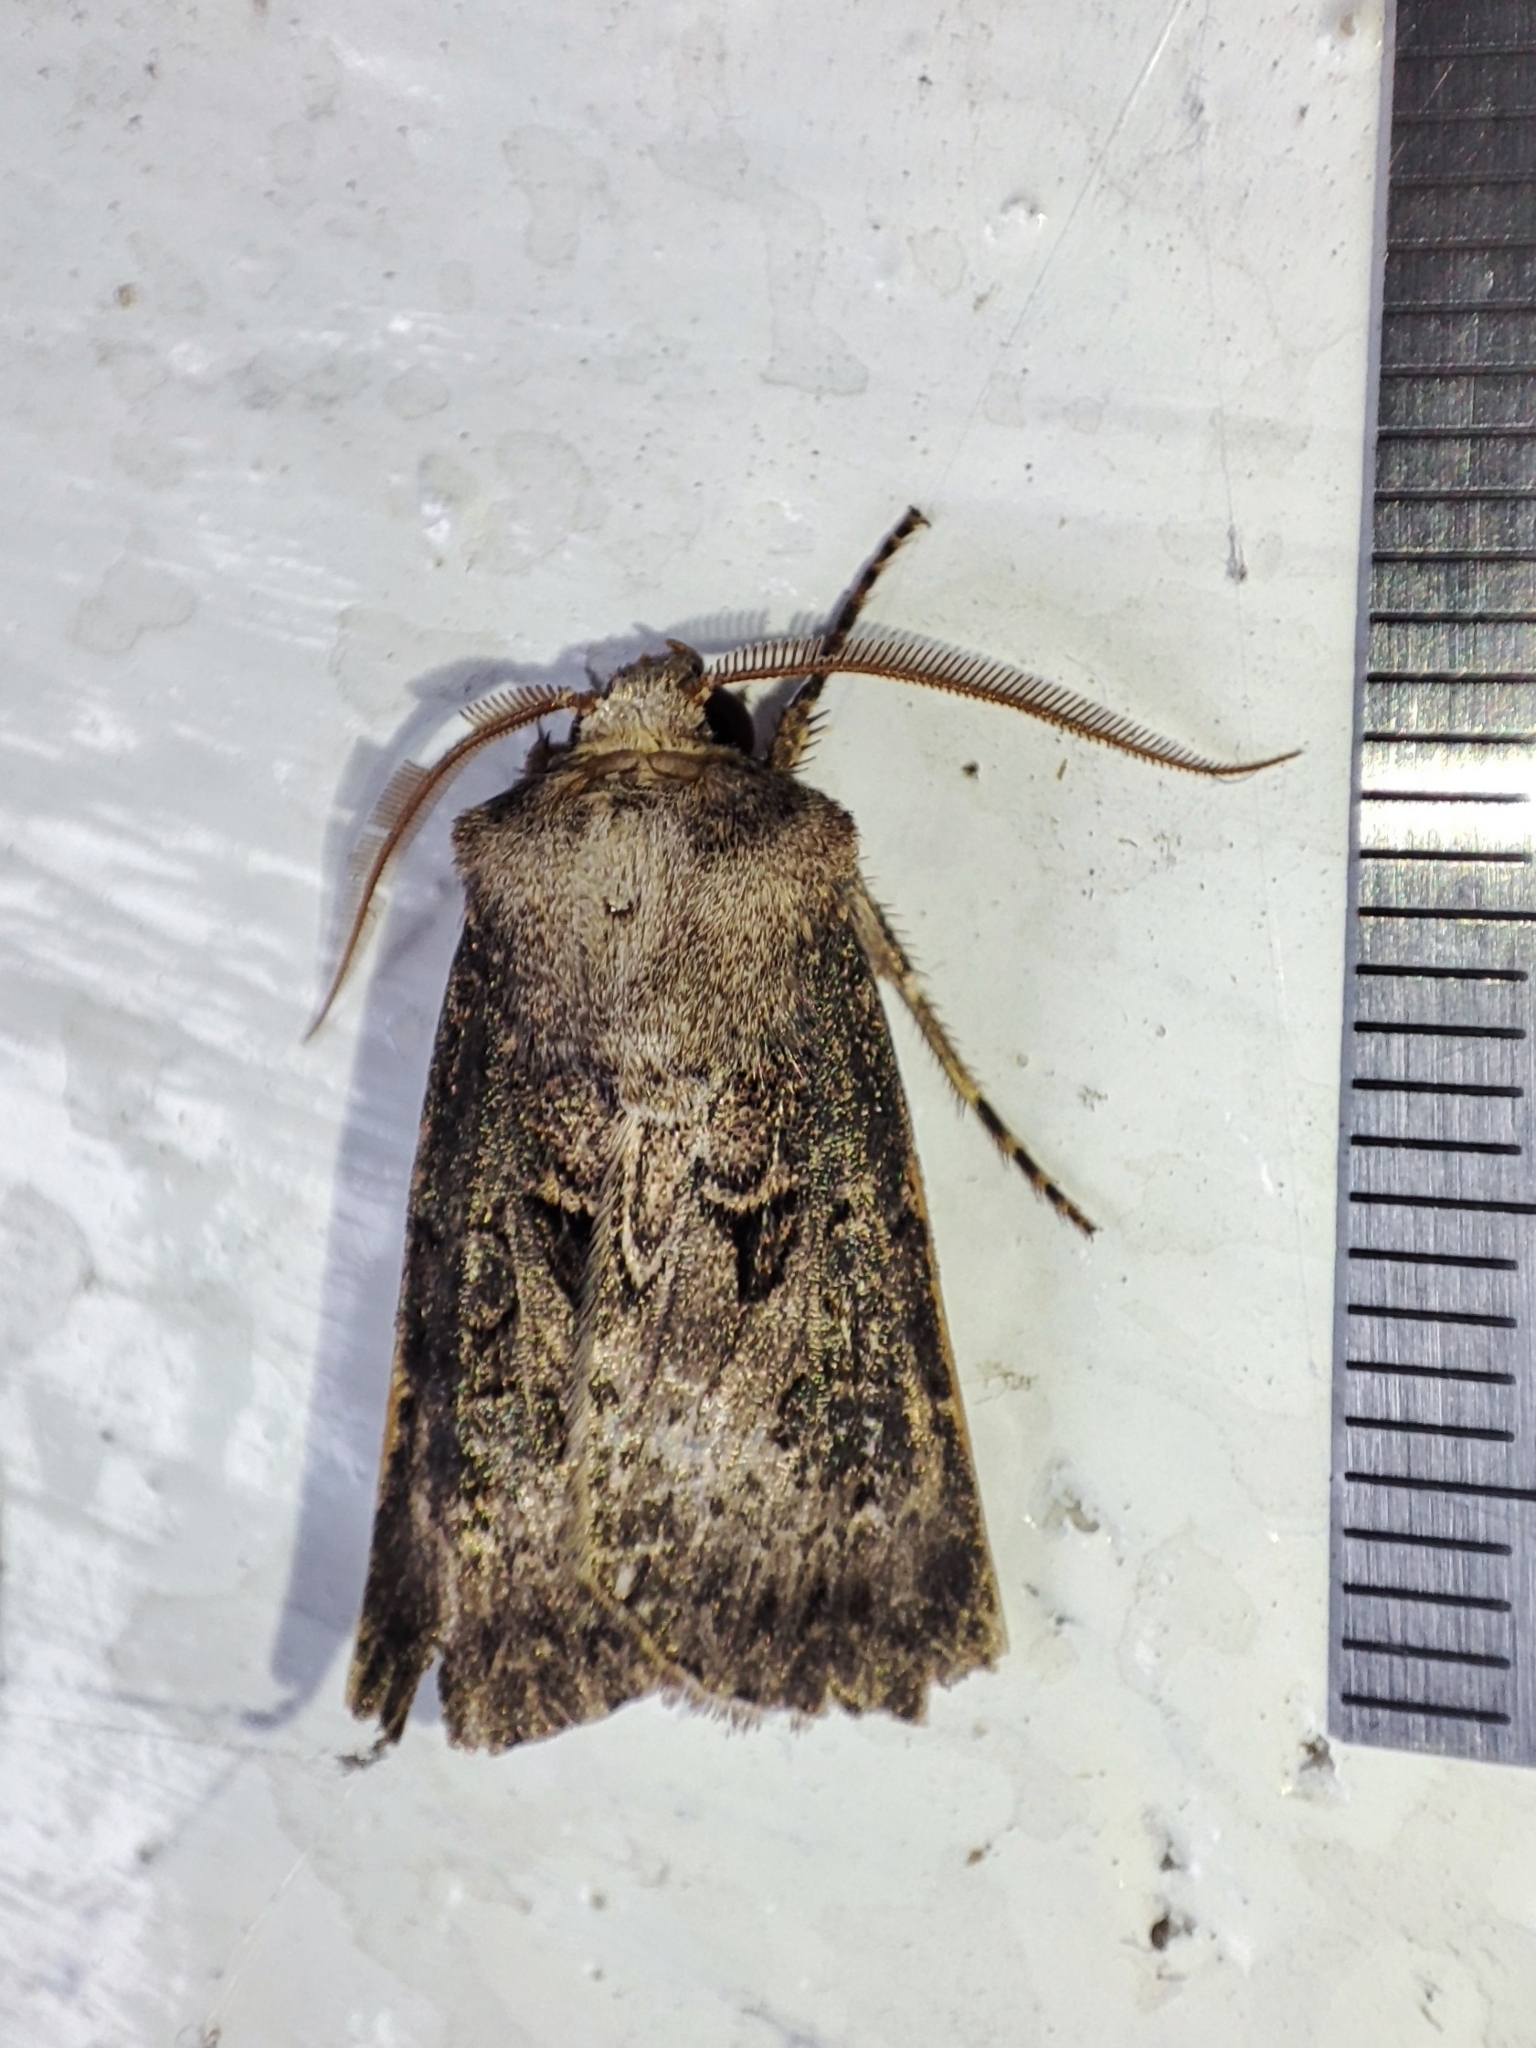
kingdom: Animalia
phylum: Arthropoda
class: Insecta
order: Lepidoptera
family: Noctuidae
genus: Agrotis
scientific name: Agrotis bigramma
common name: Great dart
